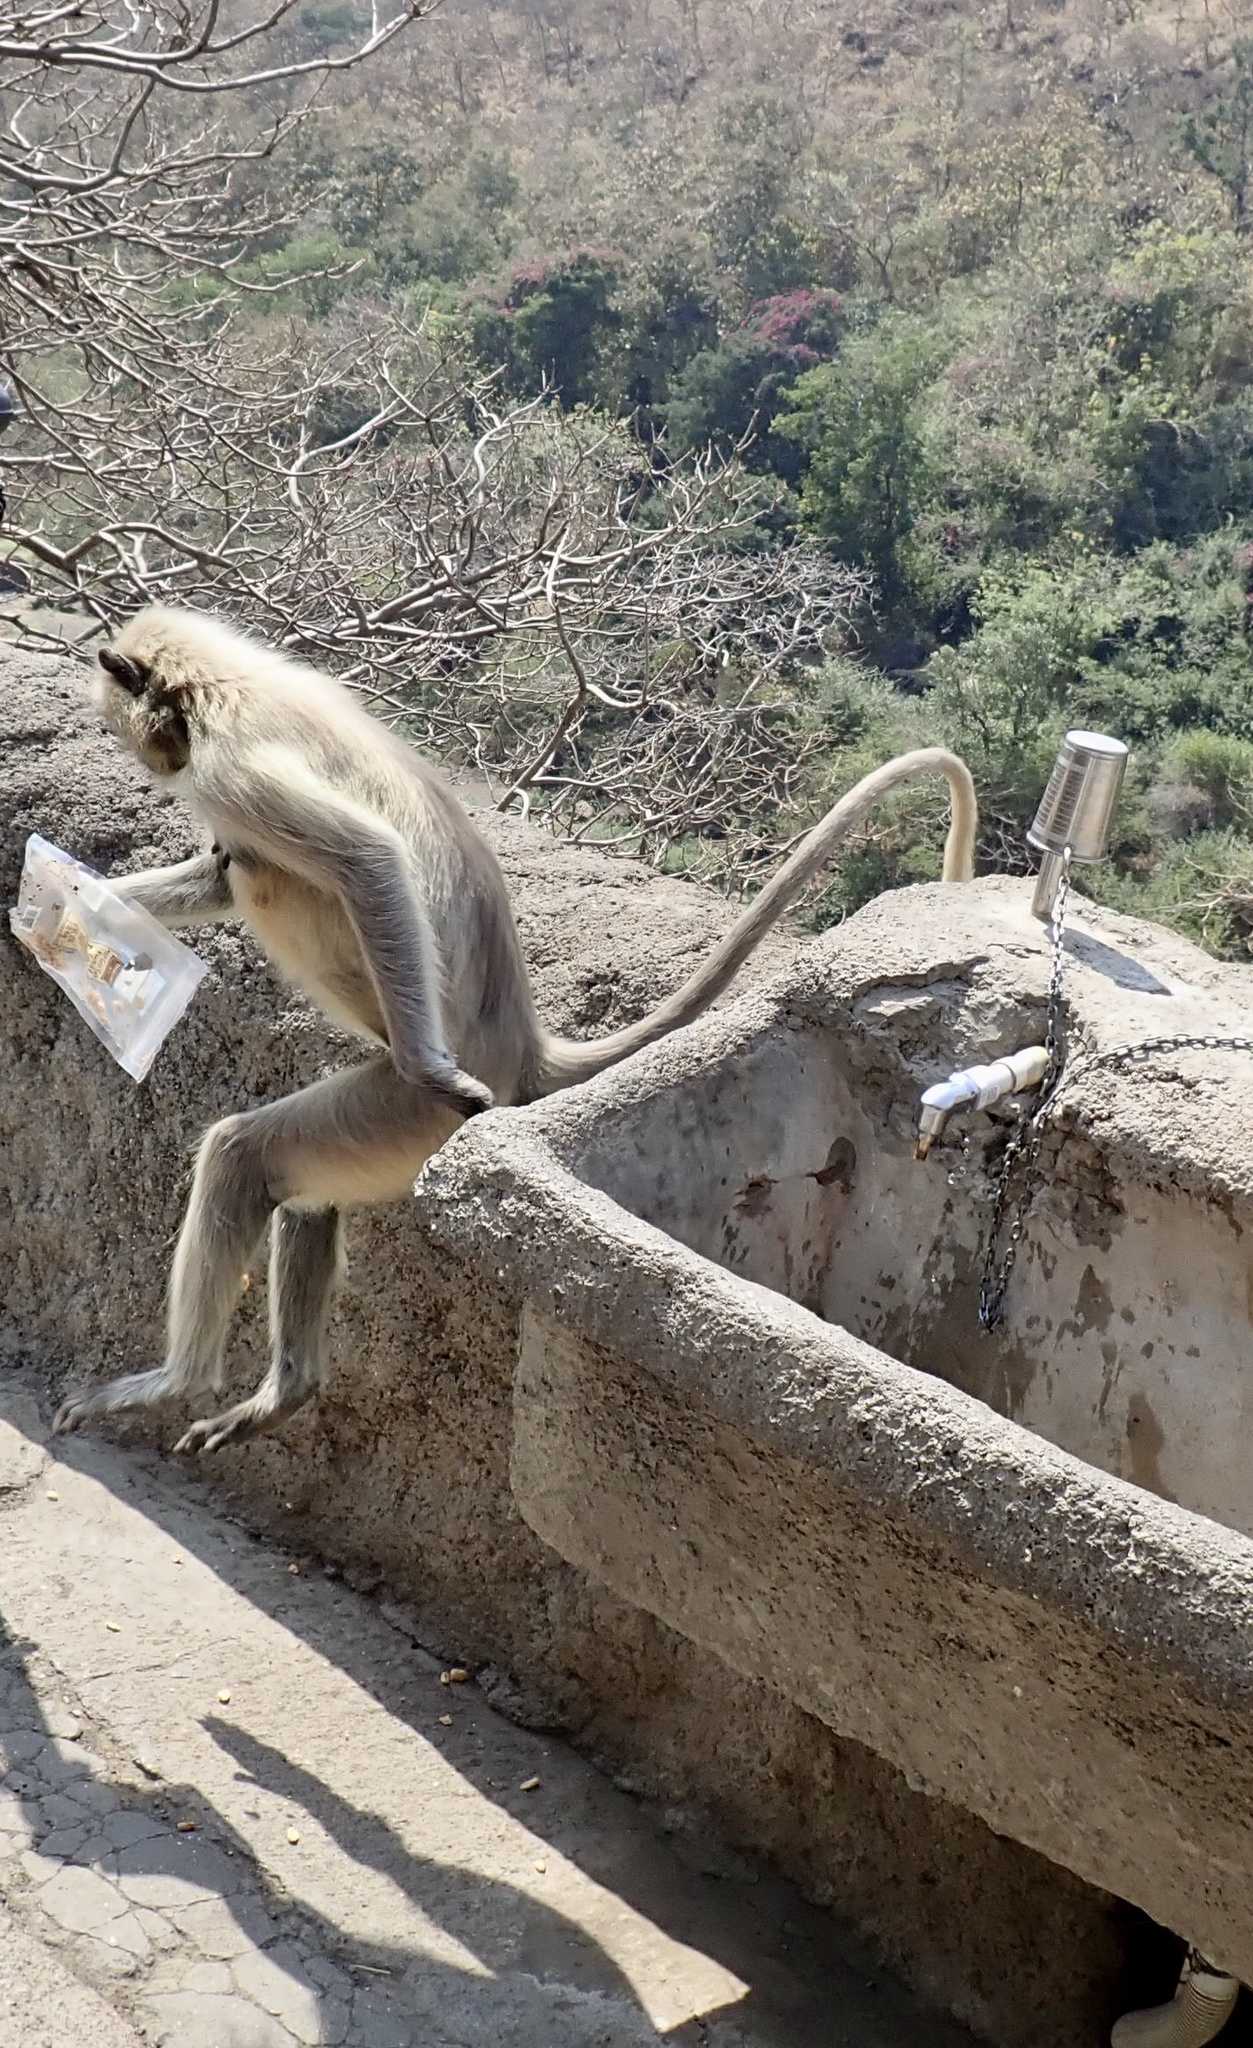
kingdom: Animalia
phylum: Chordata
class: Mammalia
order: Primates
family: Cercopithecidae
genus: Semnopithecus
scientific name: Semnopithecus hypoleucos
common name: Black-footed gray langur
